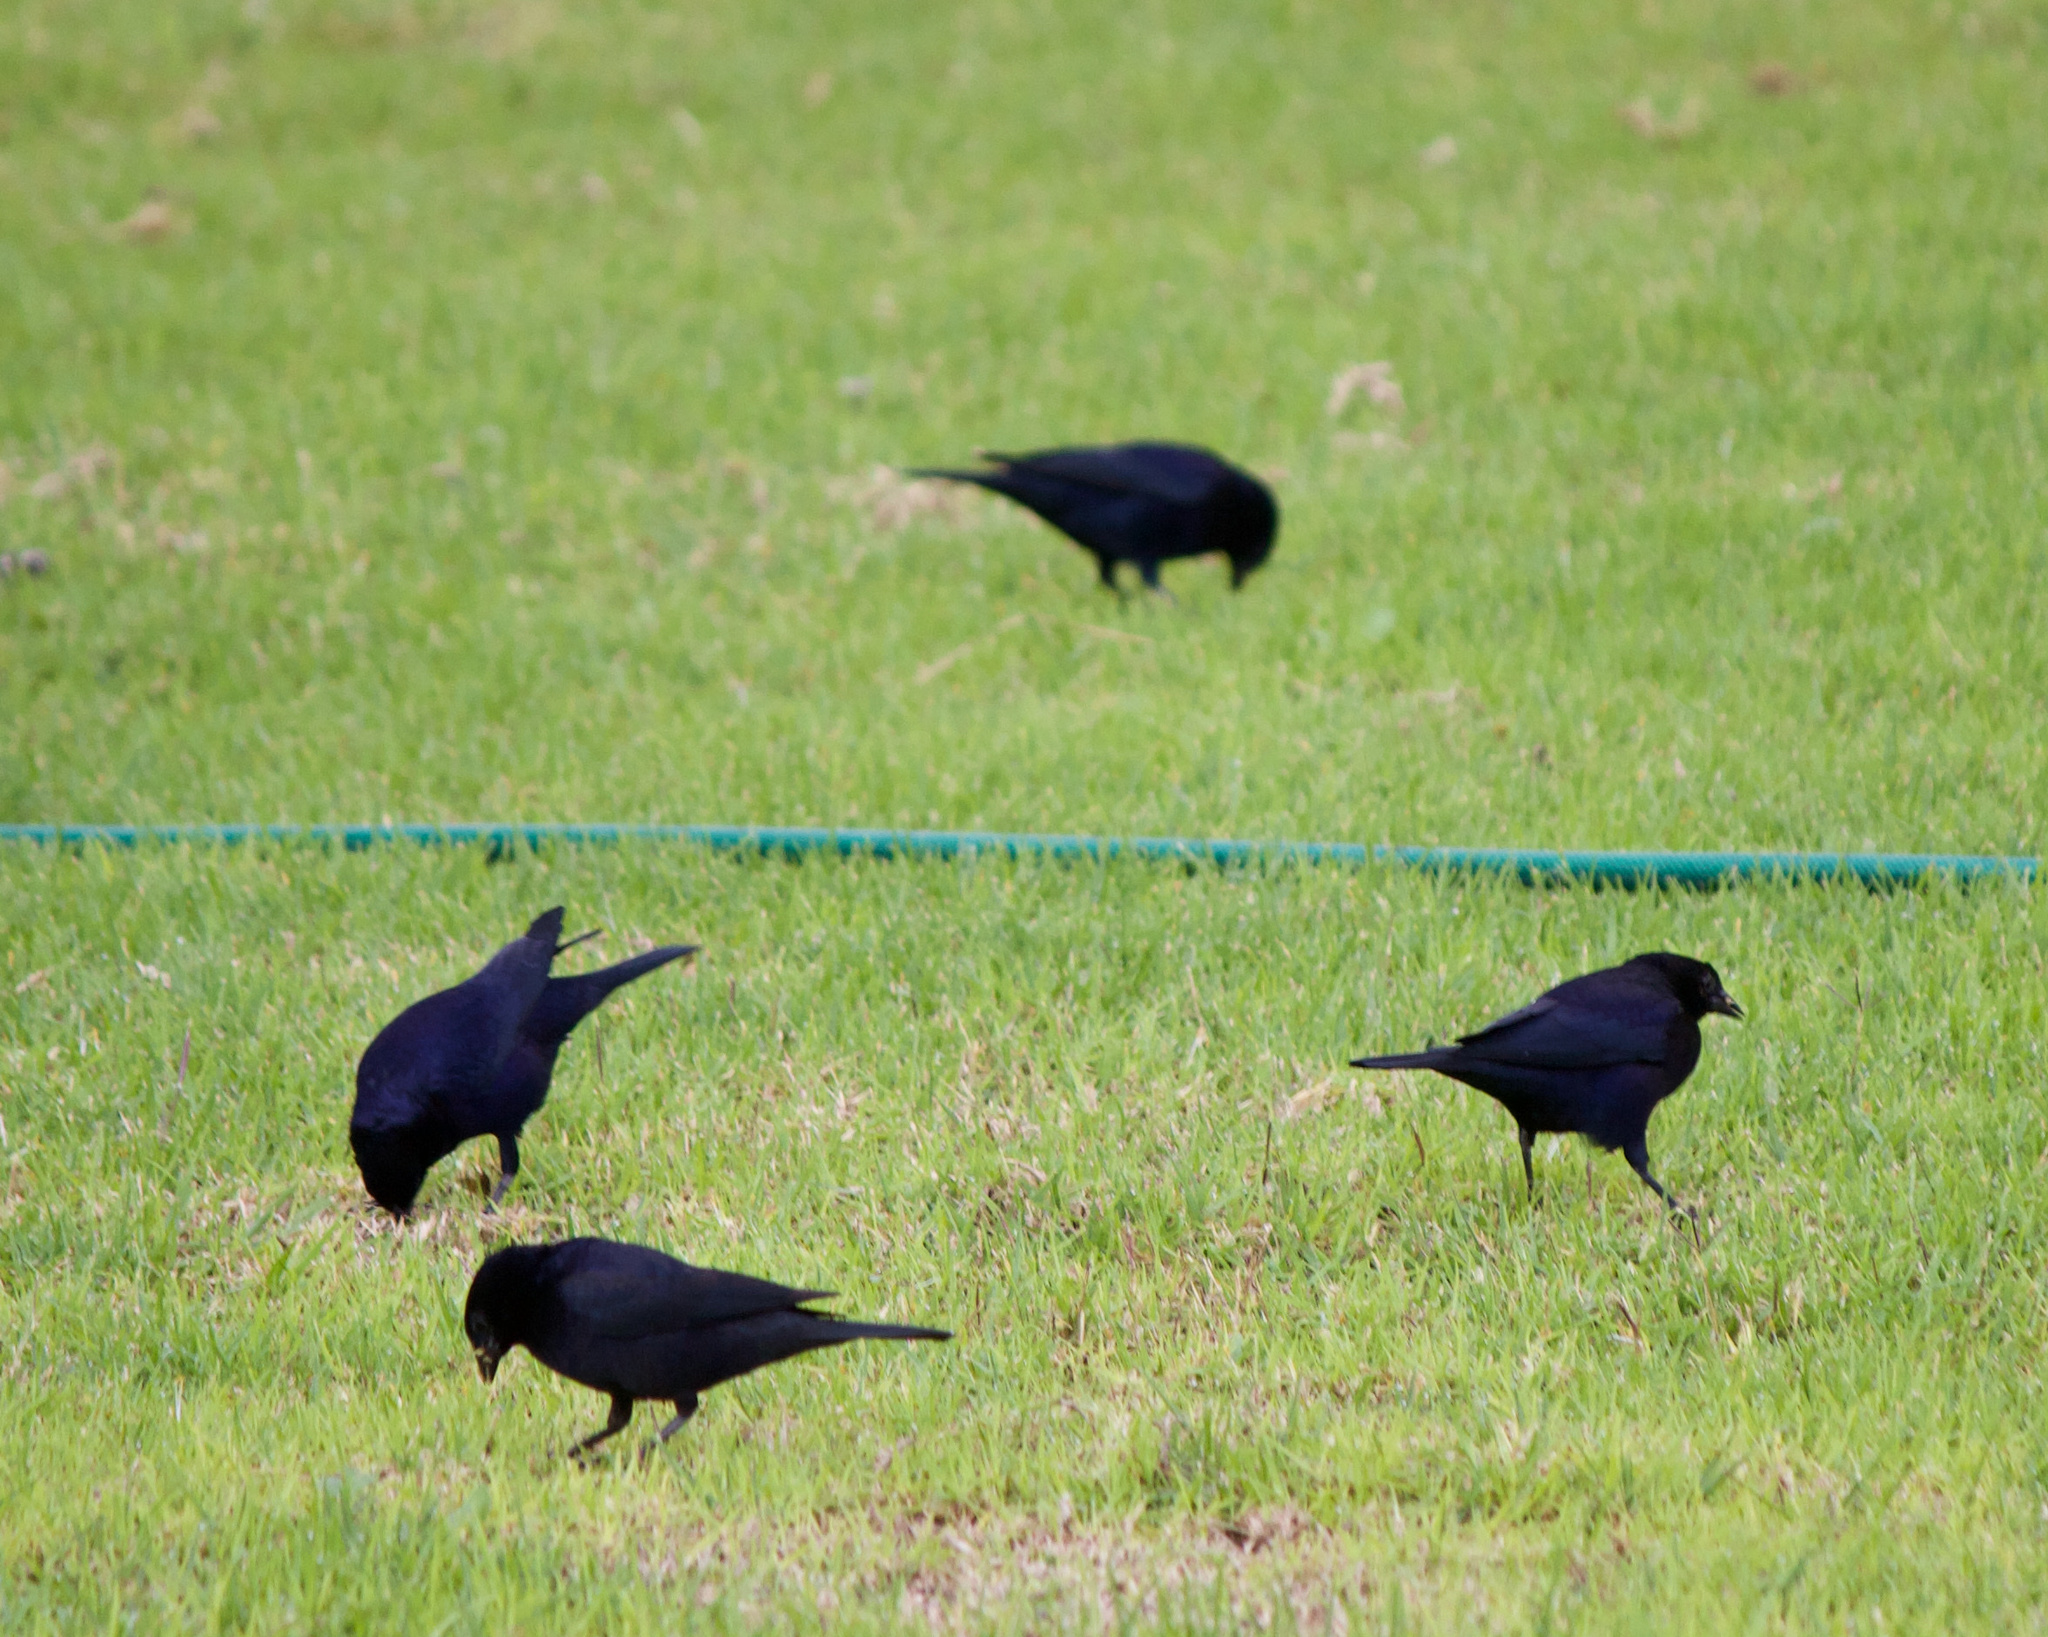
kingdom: Animalia
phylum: Chordata
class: Aves
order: Passeriformes
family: Icteridae
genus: Molothrus
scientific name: Molothrus bonariensis
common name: Shiny cowbird
